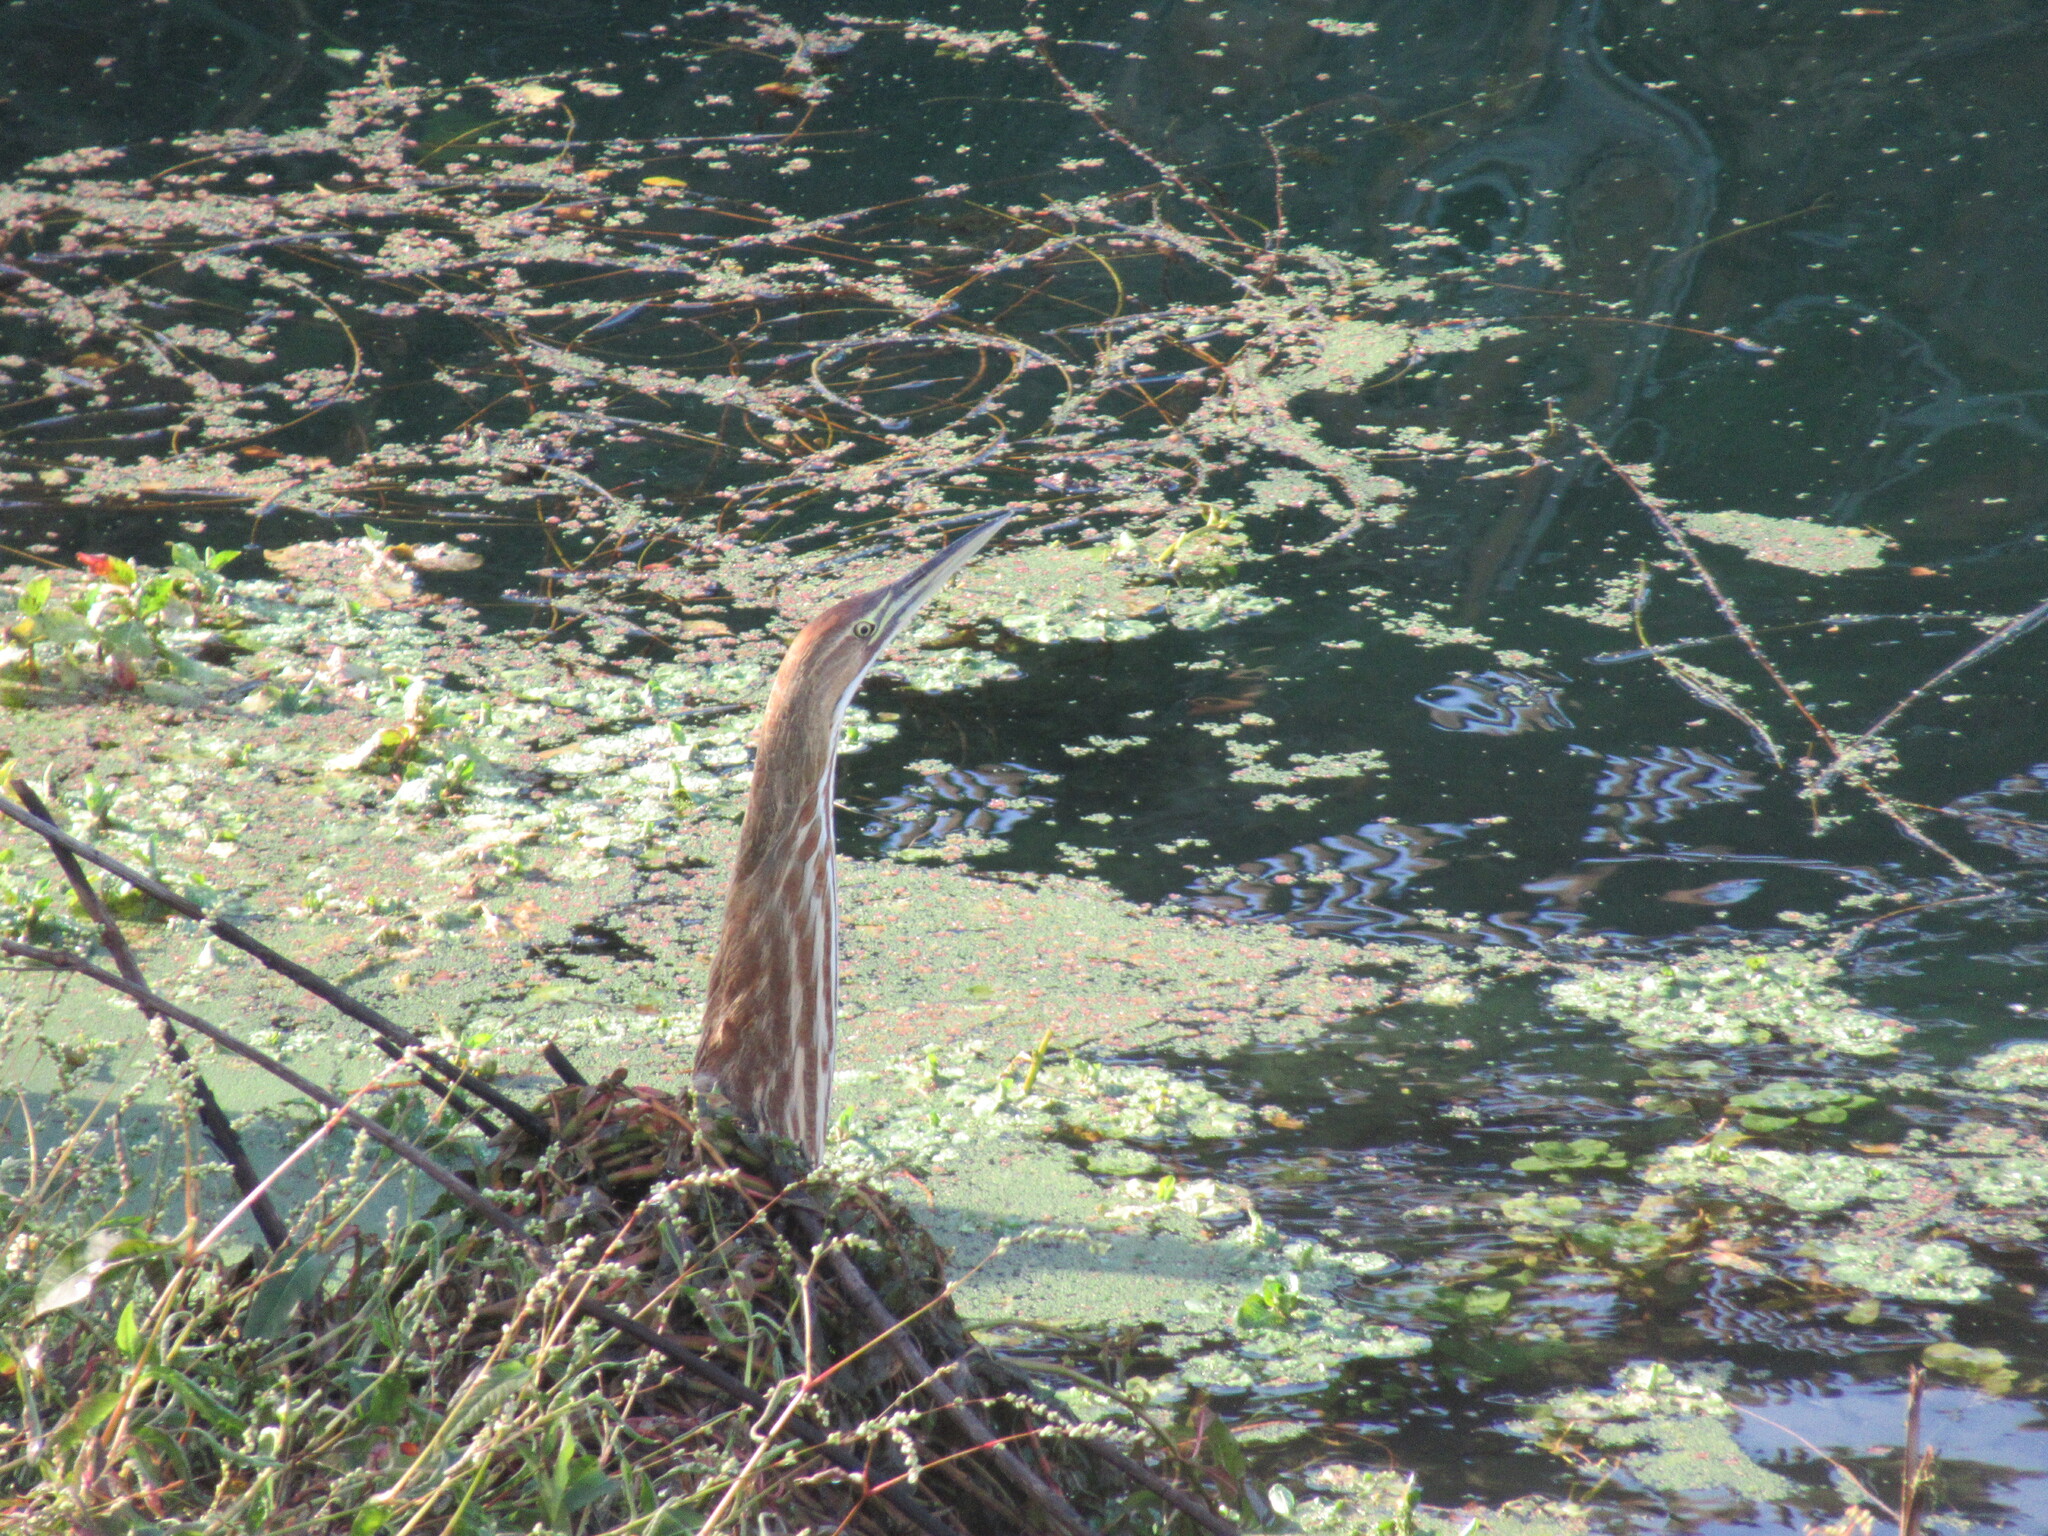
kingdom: Animalia
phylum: Chordata
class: Aves
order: Pelecaniformes
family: Ardeidae
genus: Botaurus
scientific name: Botaurus lentiginosus
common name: American bittern
